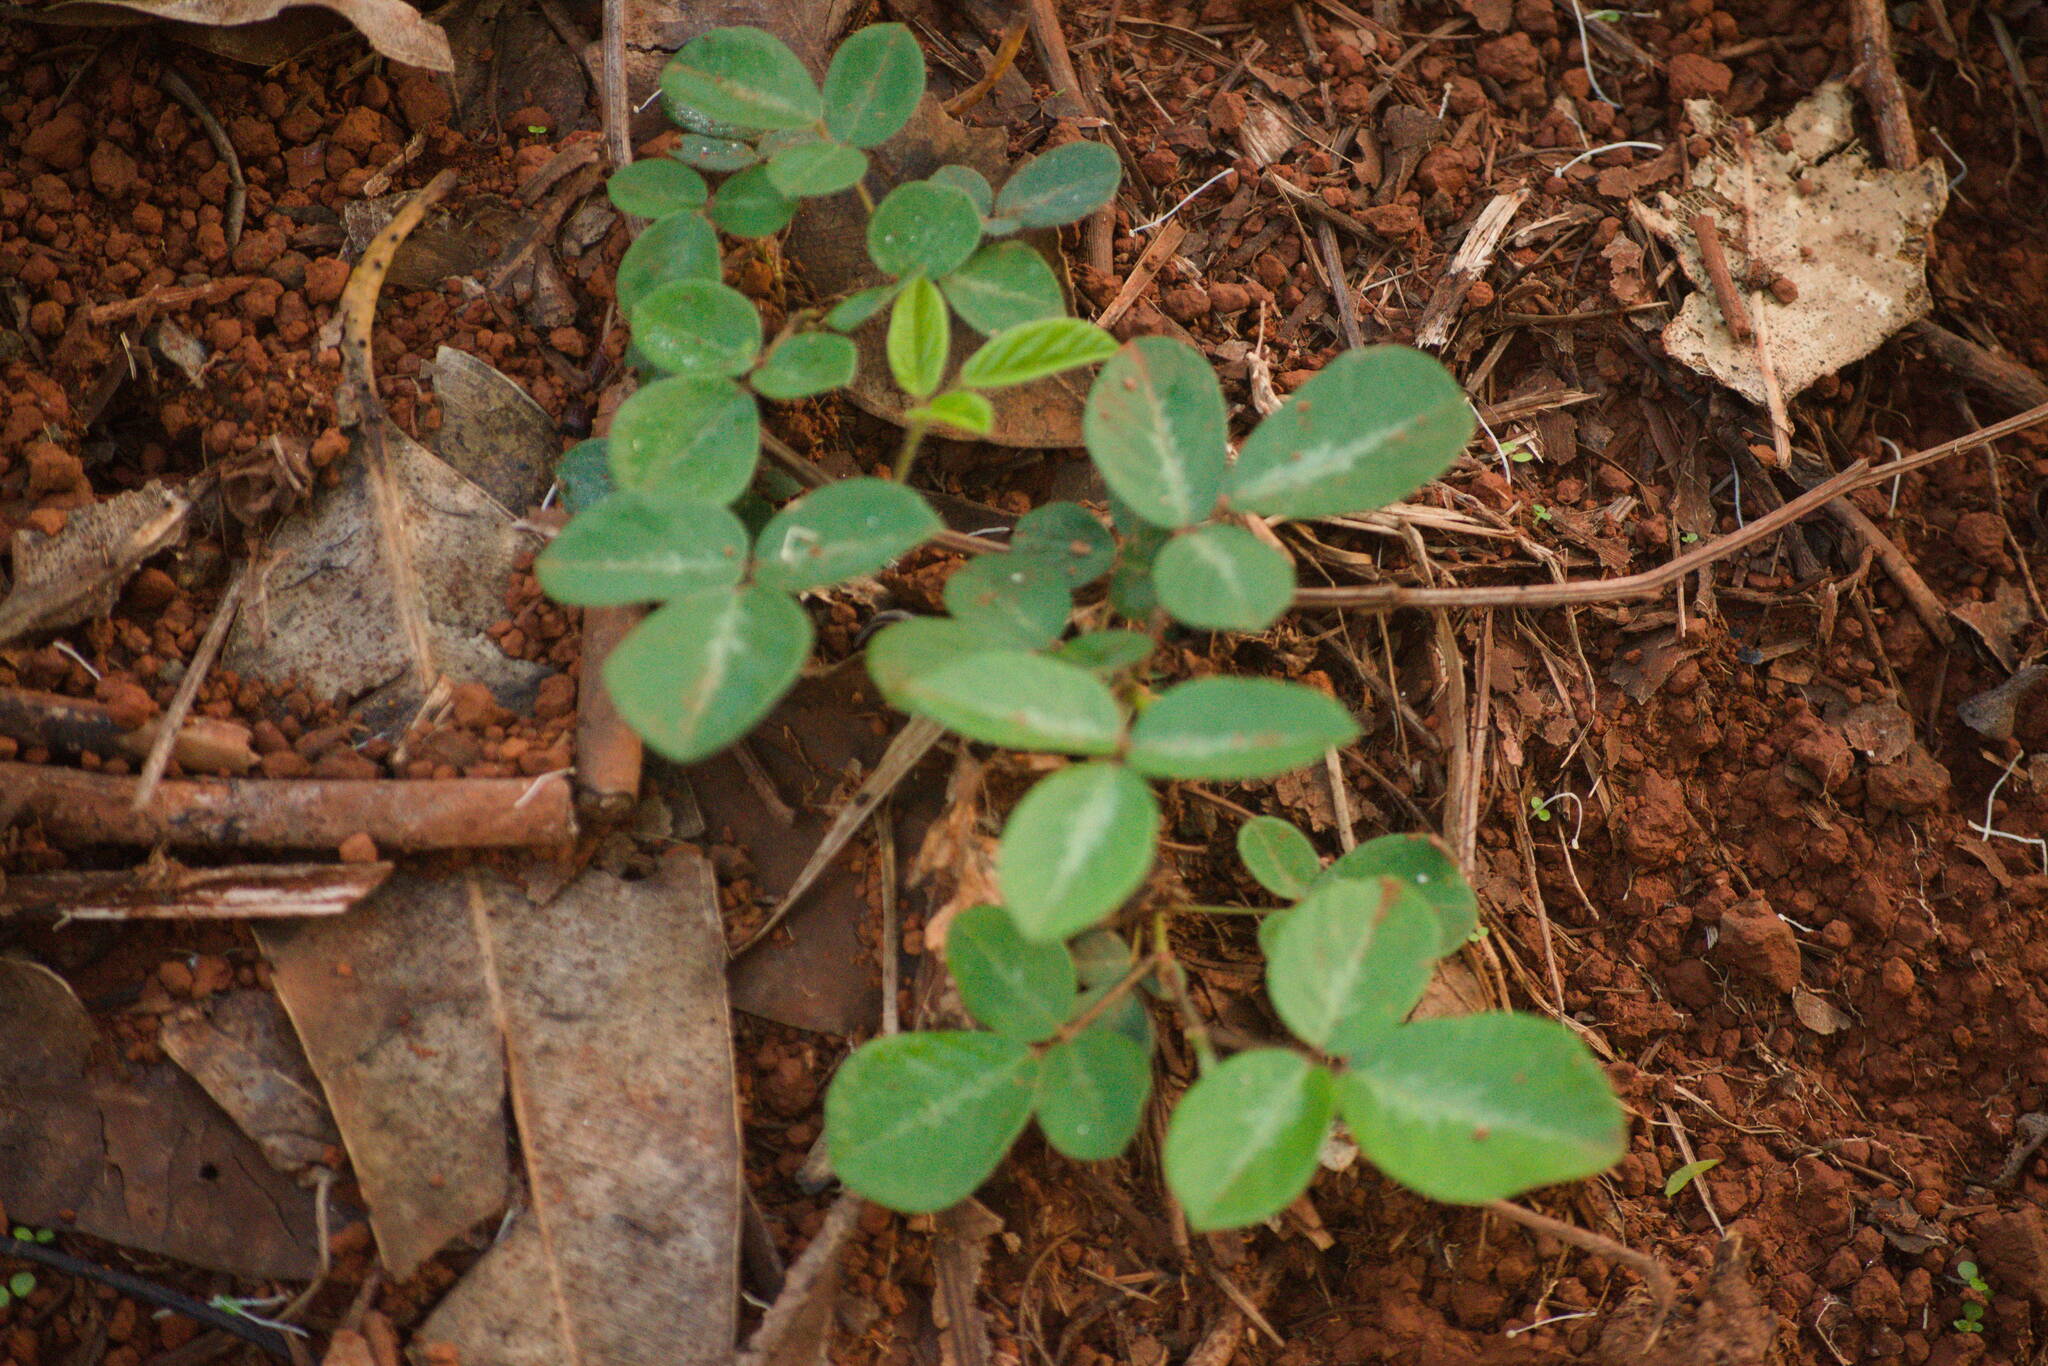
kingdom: Plantae
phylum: Tracheophyta
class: Magnoliopsida
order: Fabales
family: Fabaceae
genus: Desmodium
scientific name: Desmodium incanum
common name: Tickclover
